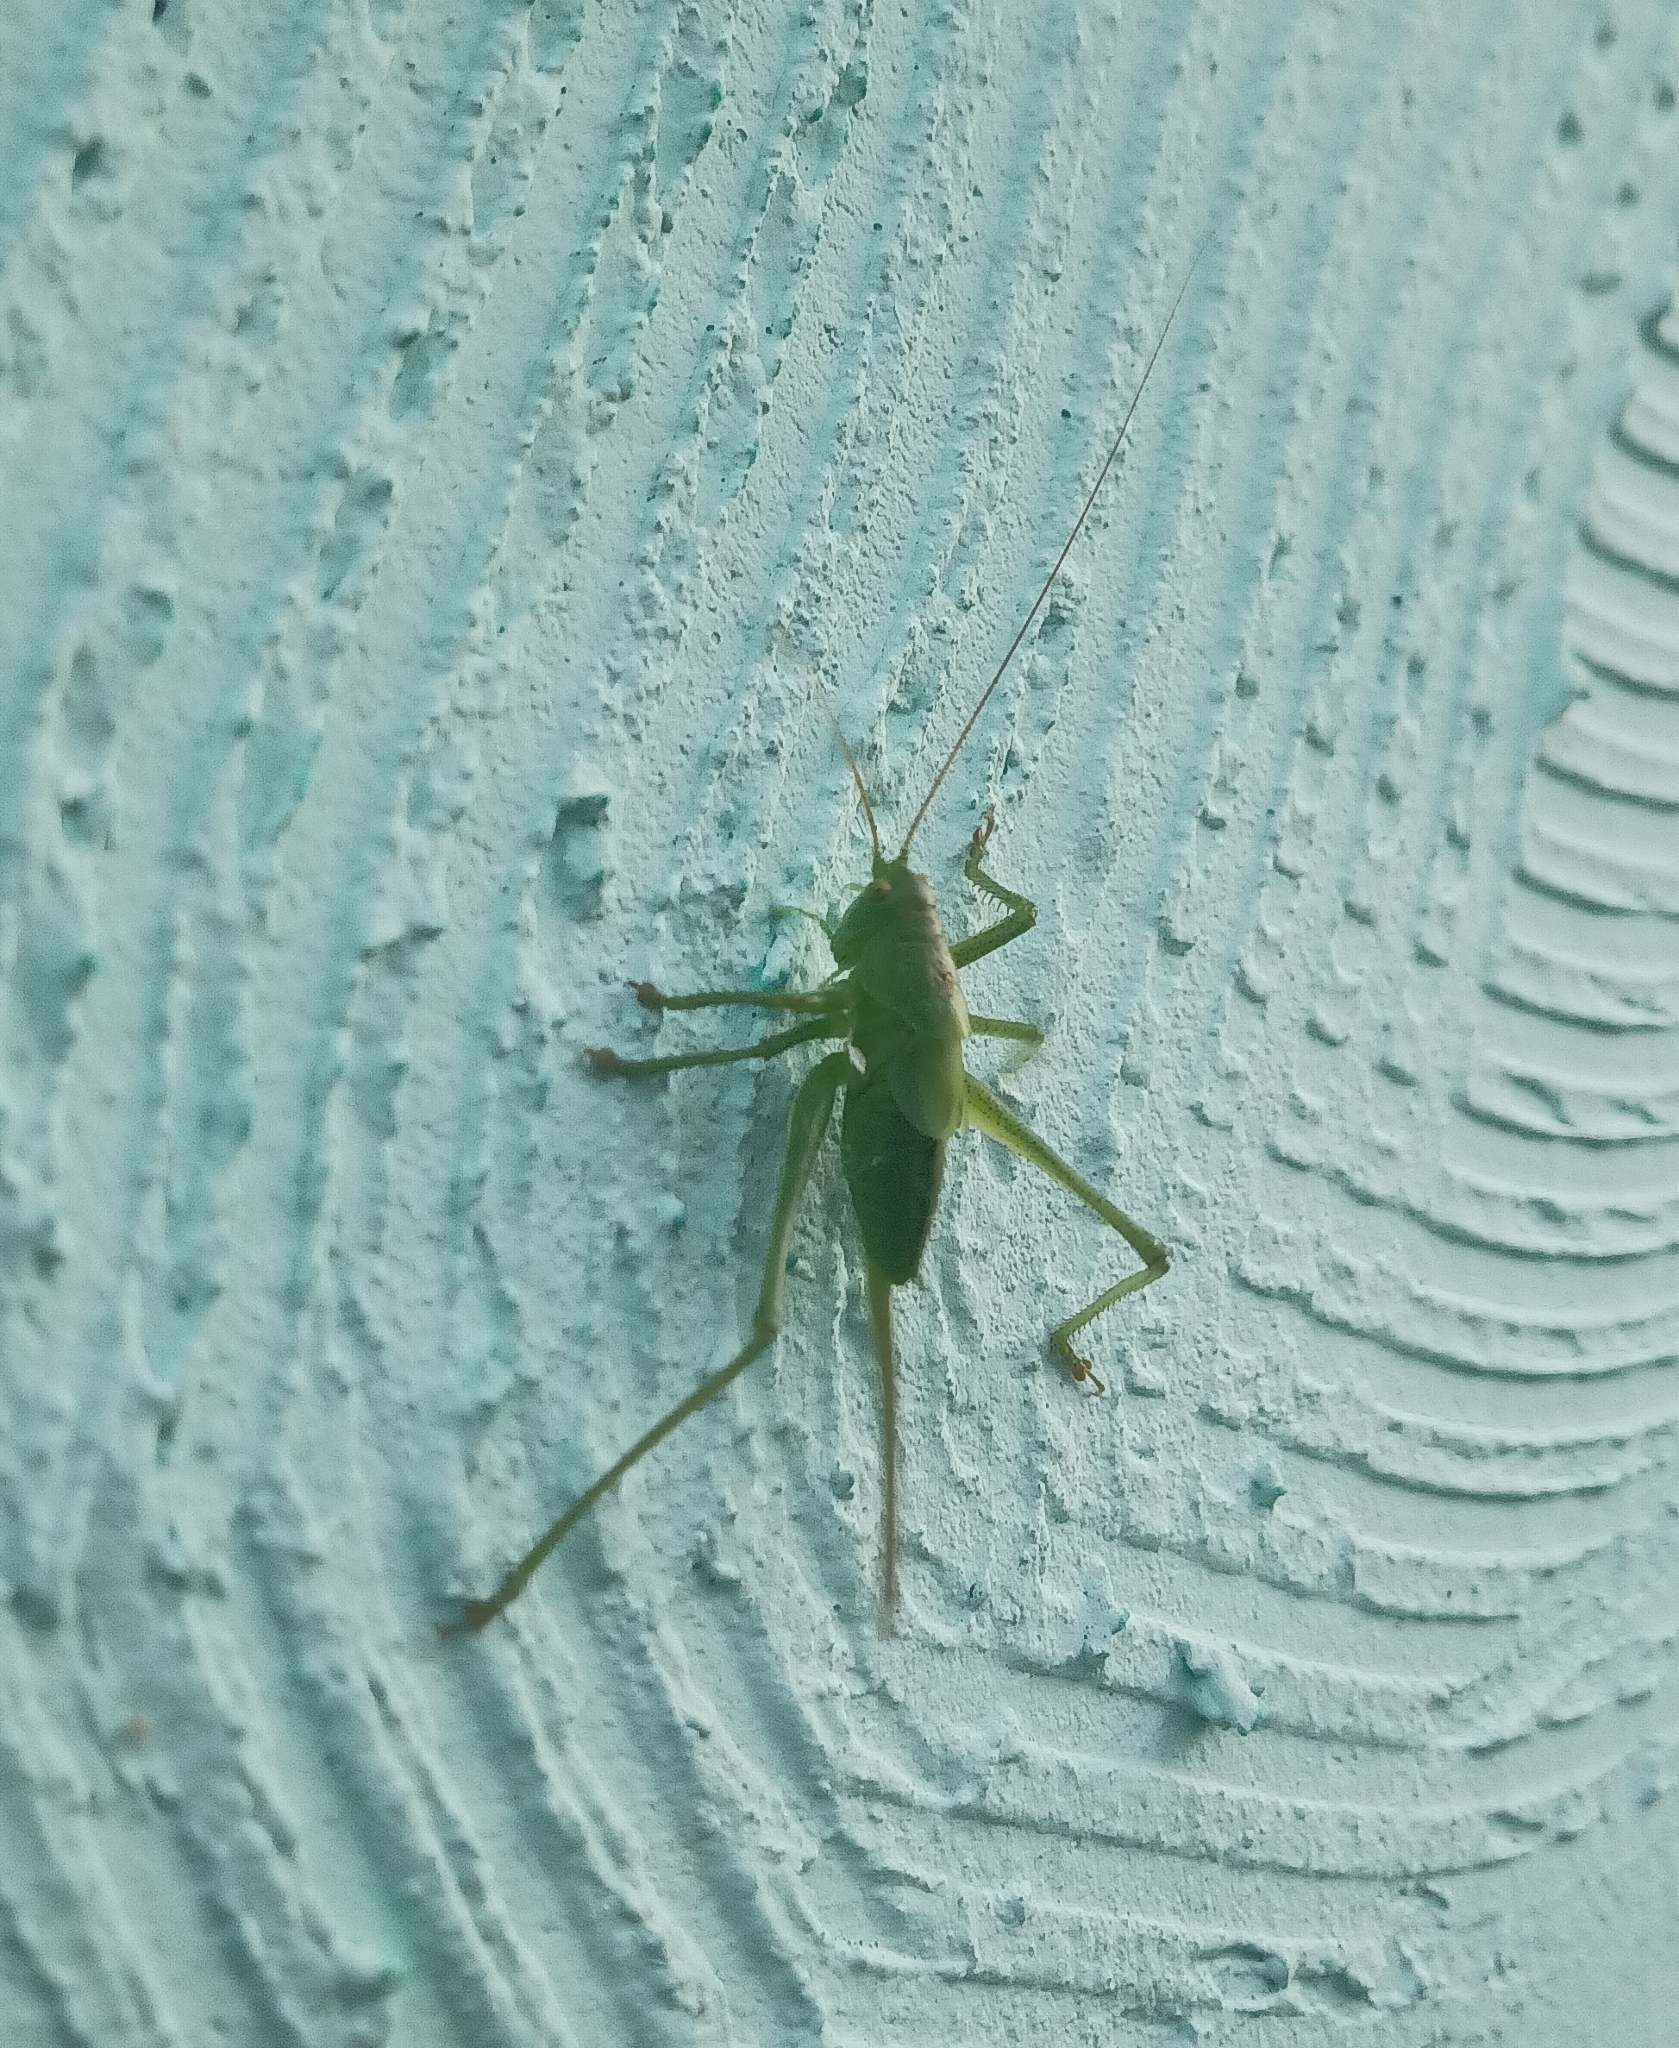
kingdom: Animalia
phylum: Arthropoda
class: Insecta
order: Orthoptera
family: Tettigoniidae
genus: Tettigonia
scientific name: Tettigonia cantans
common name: Upland green bush-cricket
